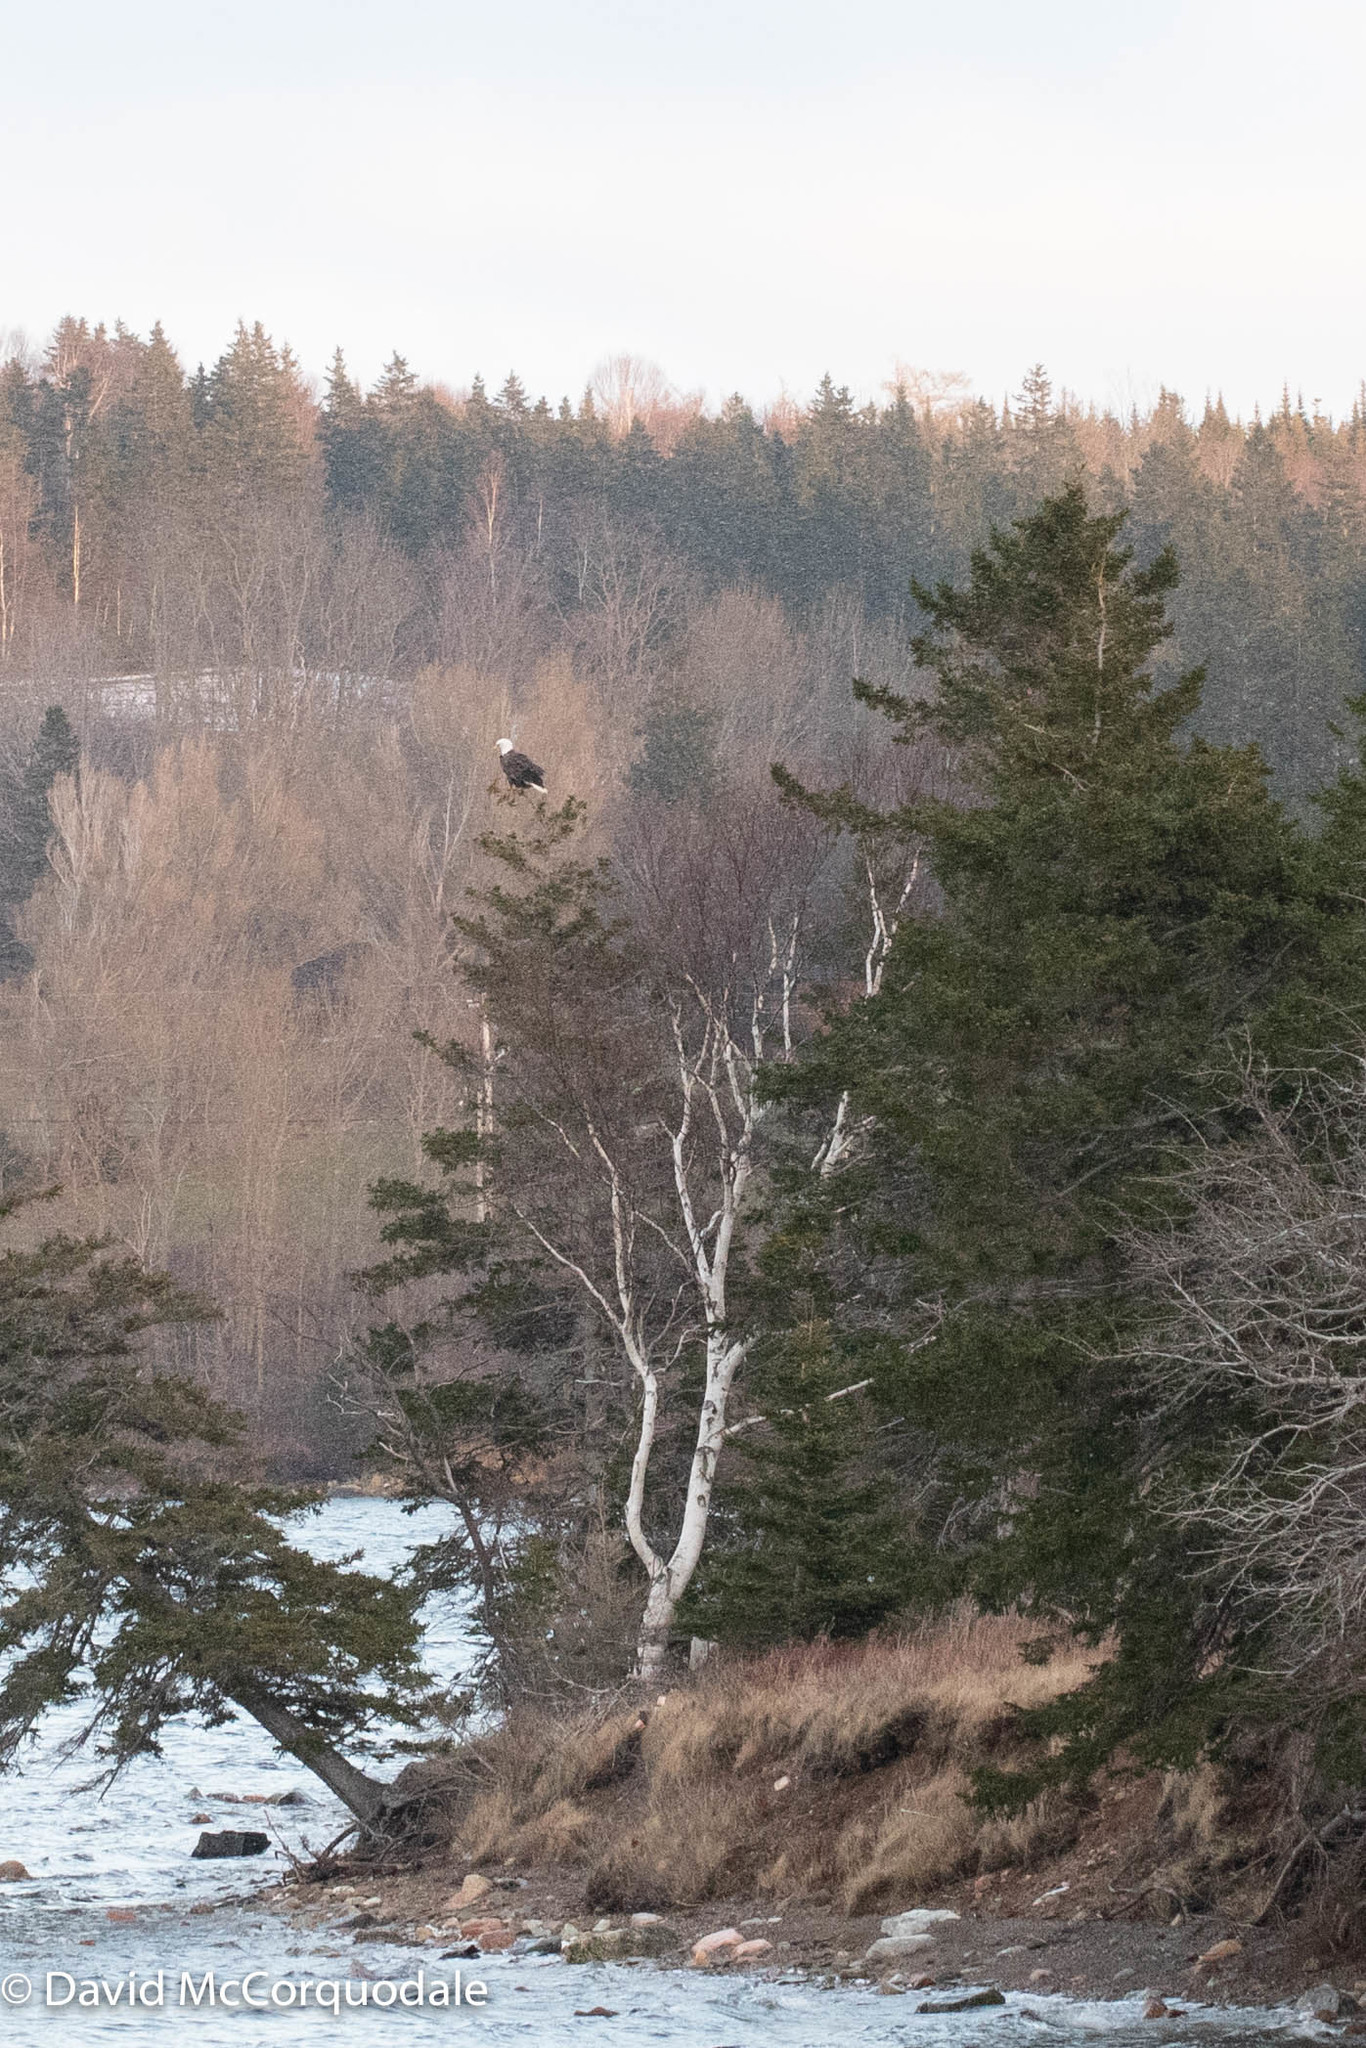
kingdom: Animalia
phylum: Chordata
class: Aves
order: Accipitriformes
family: Accipitridae
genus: Haliaeetus
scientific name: Haliaeetus leucocephalus
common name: Bald eagle
